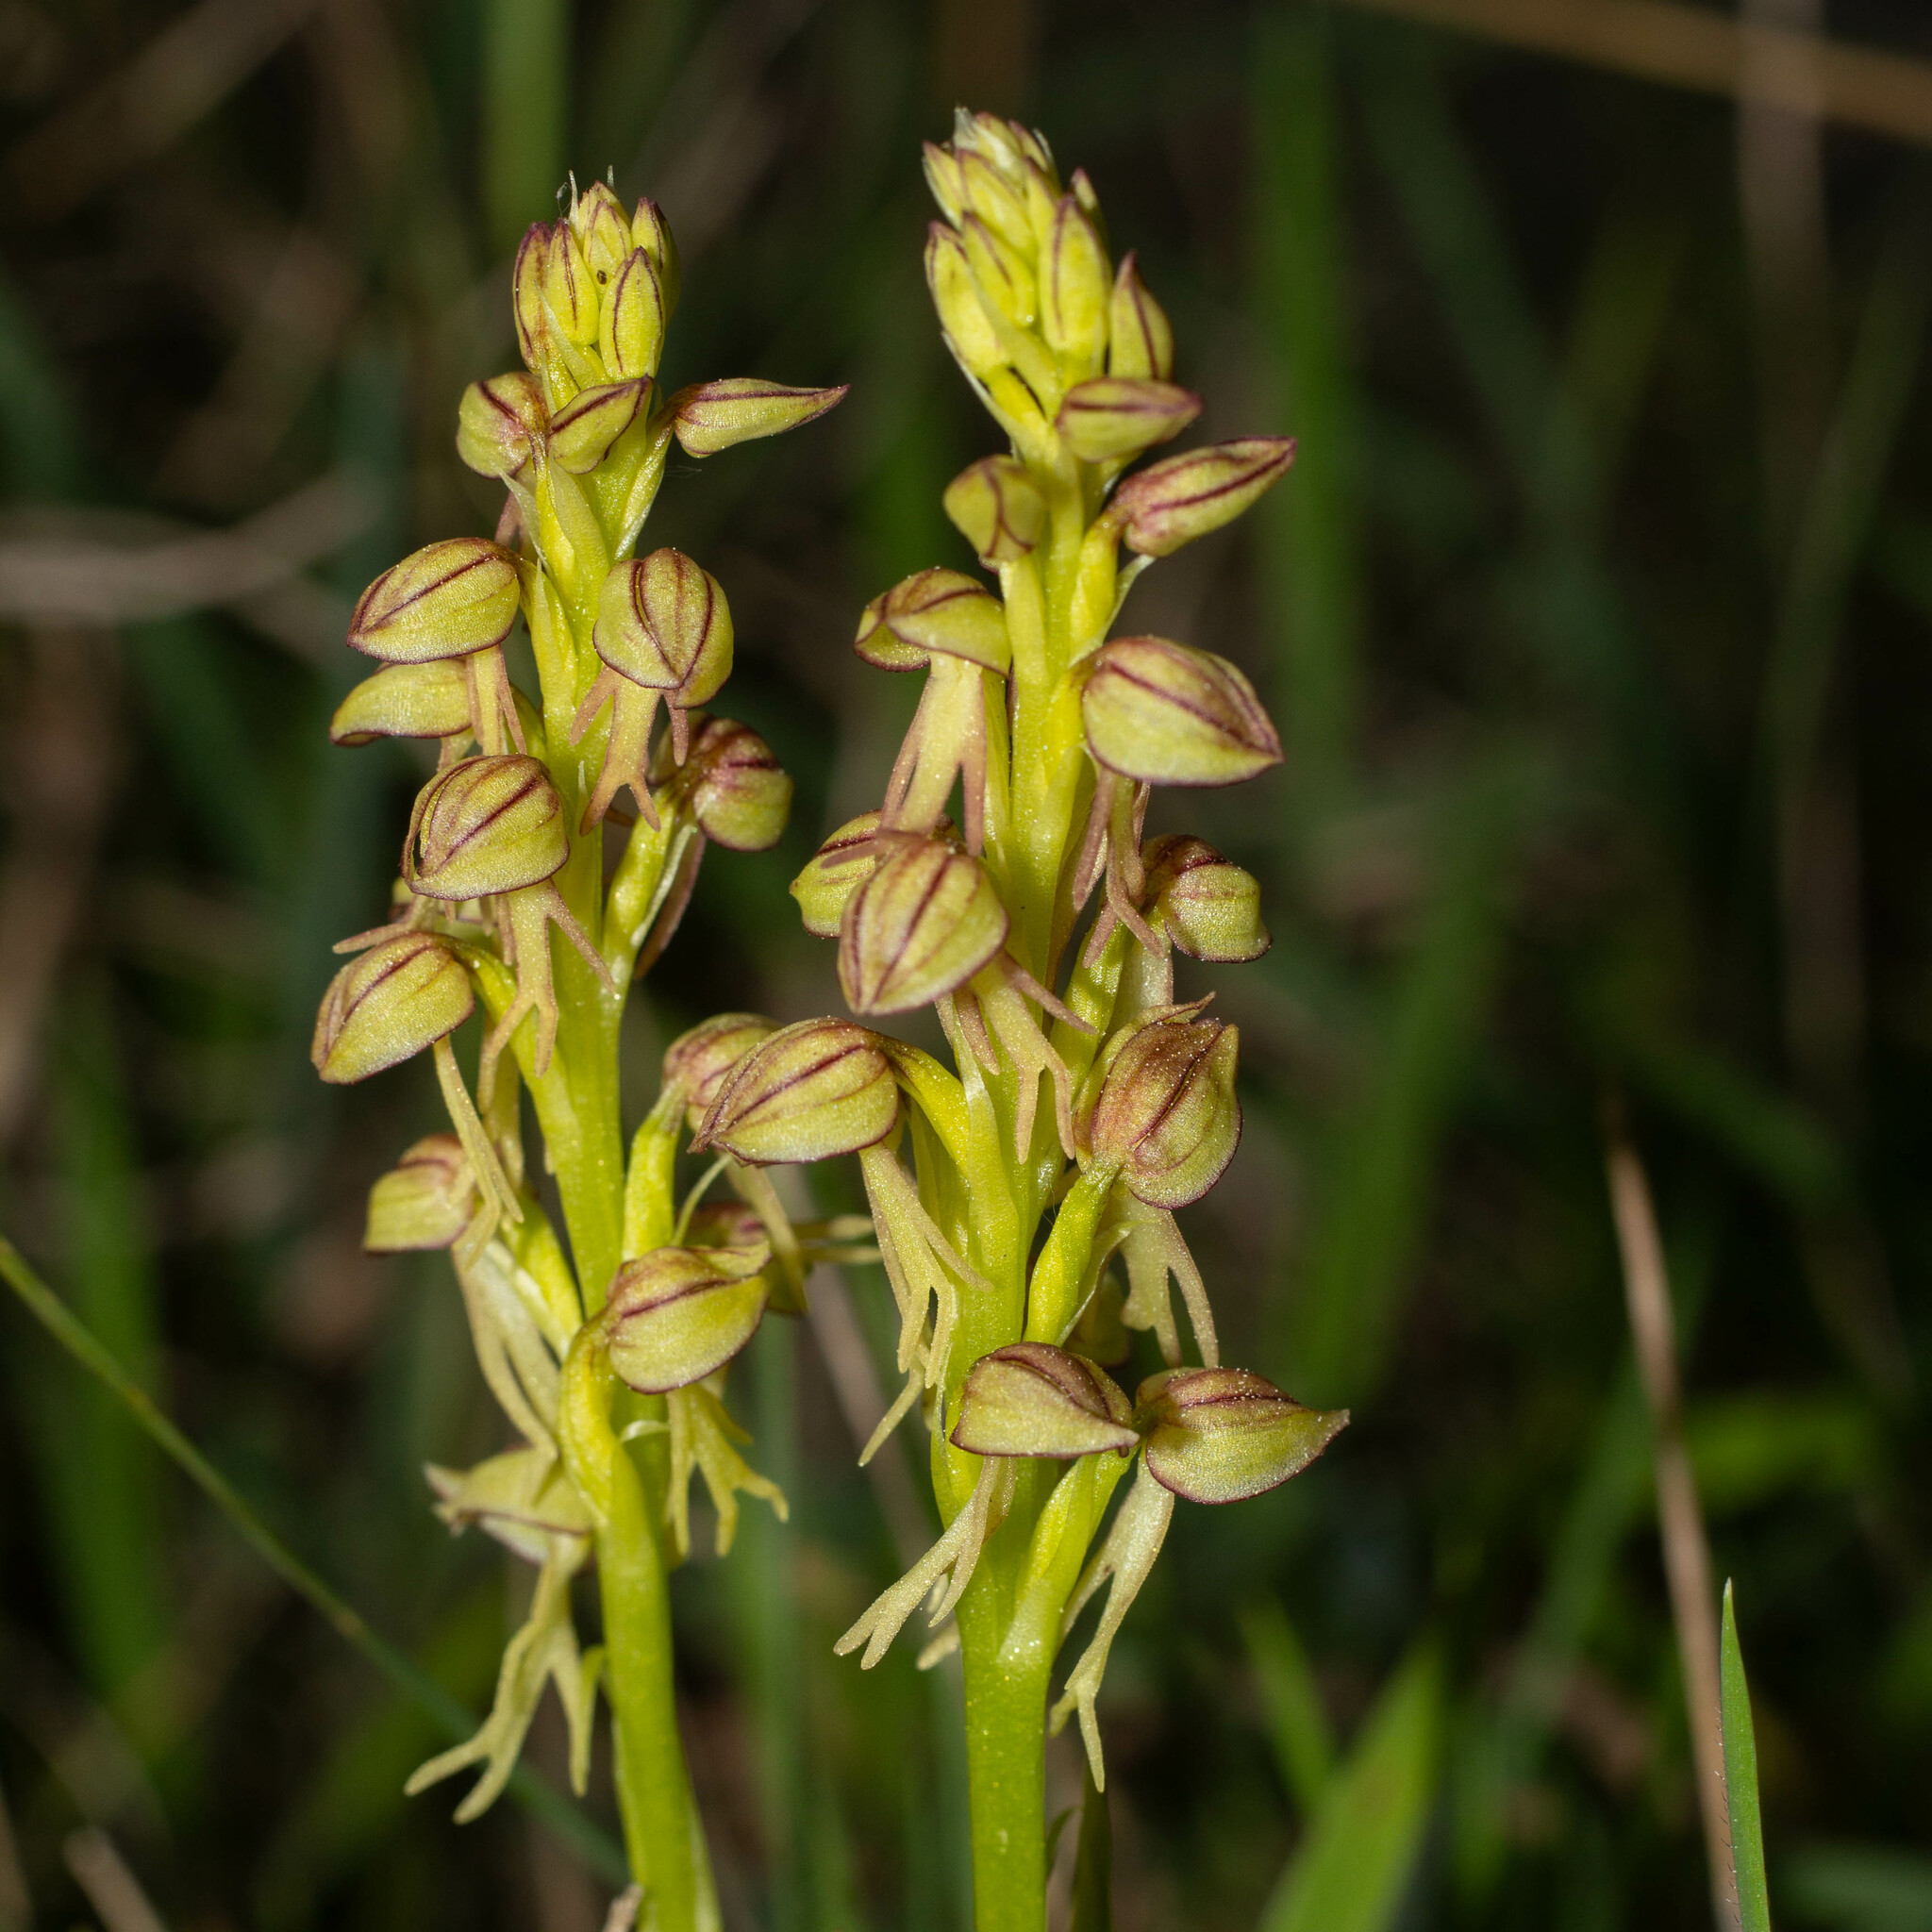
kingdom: Plantae
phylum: Tracheophyta
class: Liliopsida
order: Asparagales
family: Orchidaceae
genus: Orchis
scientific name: Orchis anthropophora
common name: Man orchid
